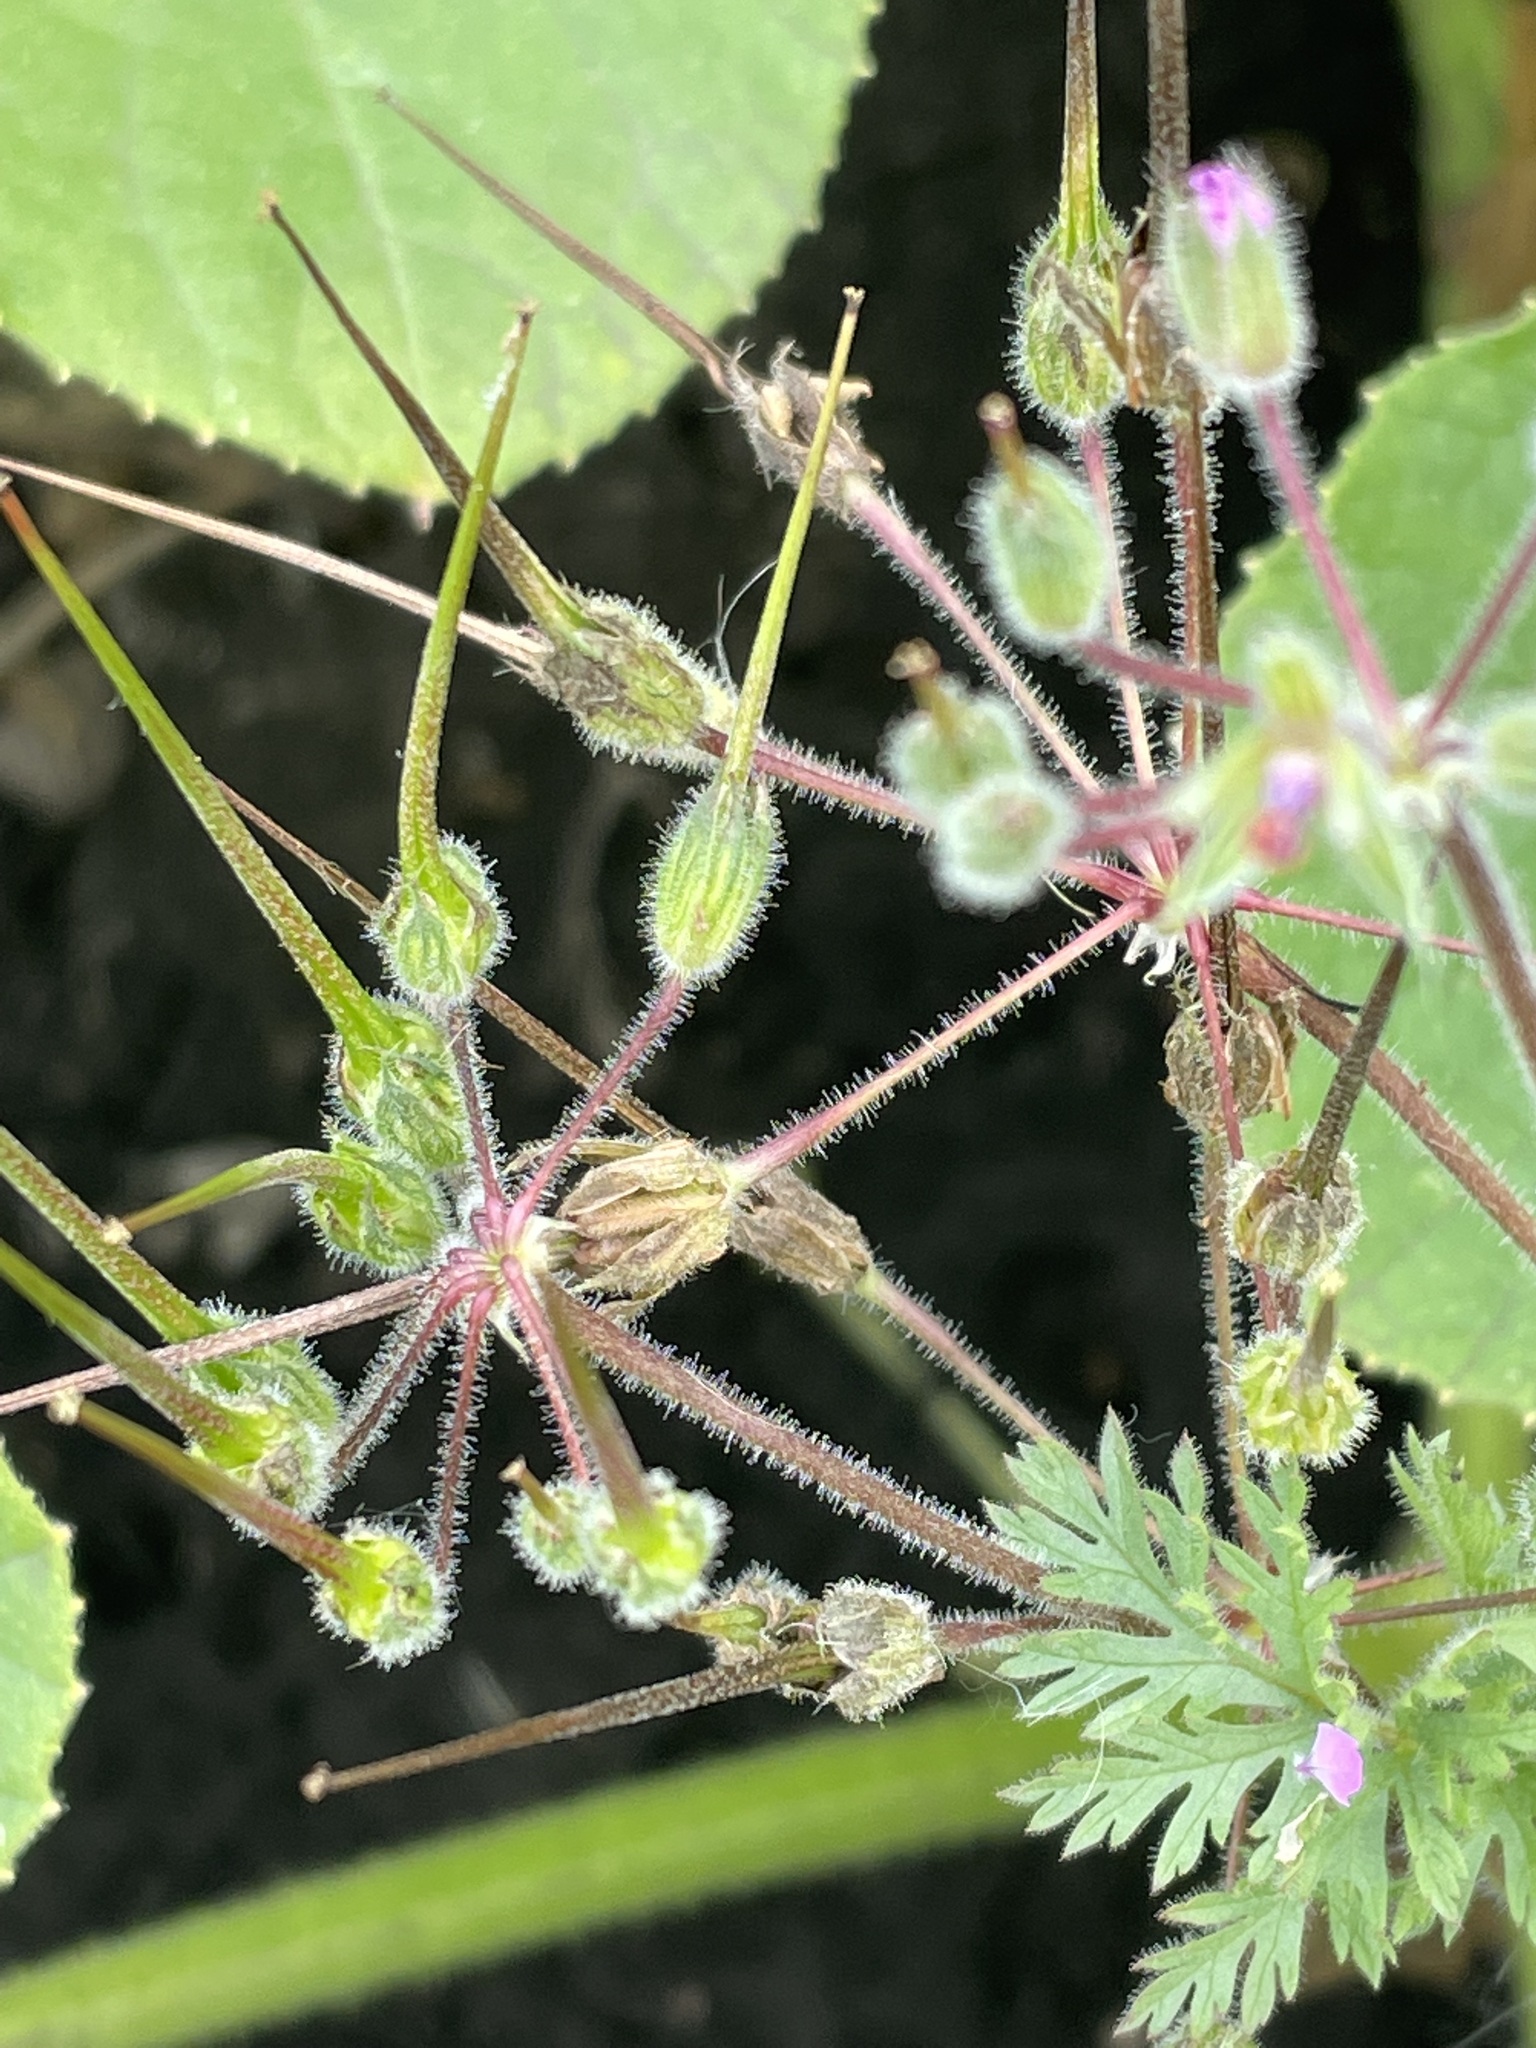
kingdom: Plantae
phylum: Tracheophyta
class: Magnoliopsida
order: Geraniales
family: Geraniaceae
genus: Erodium
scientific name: Erodium cicutarium
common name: Common stork's-bill
